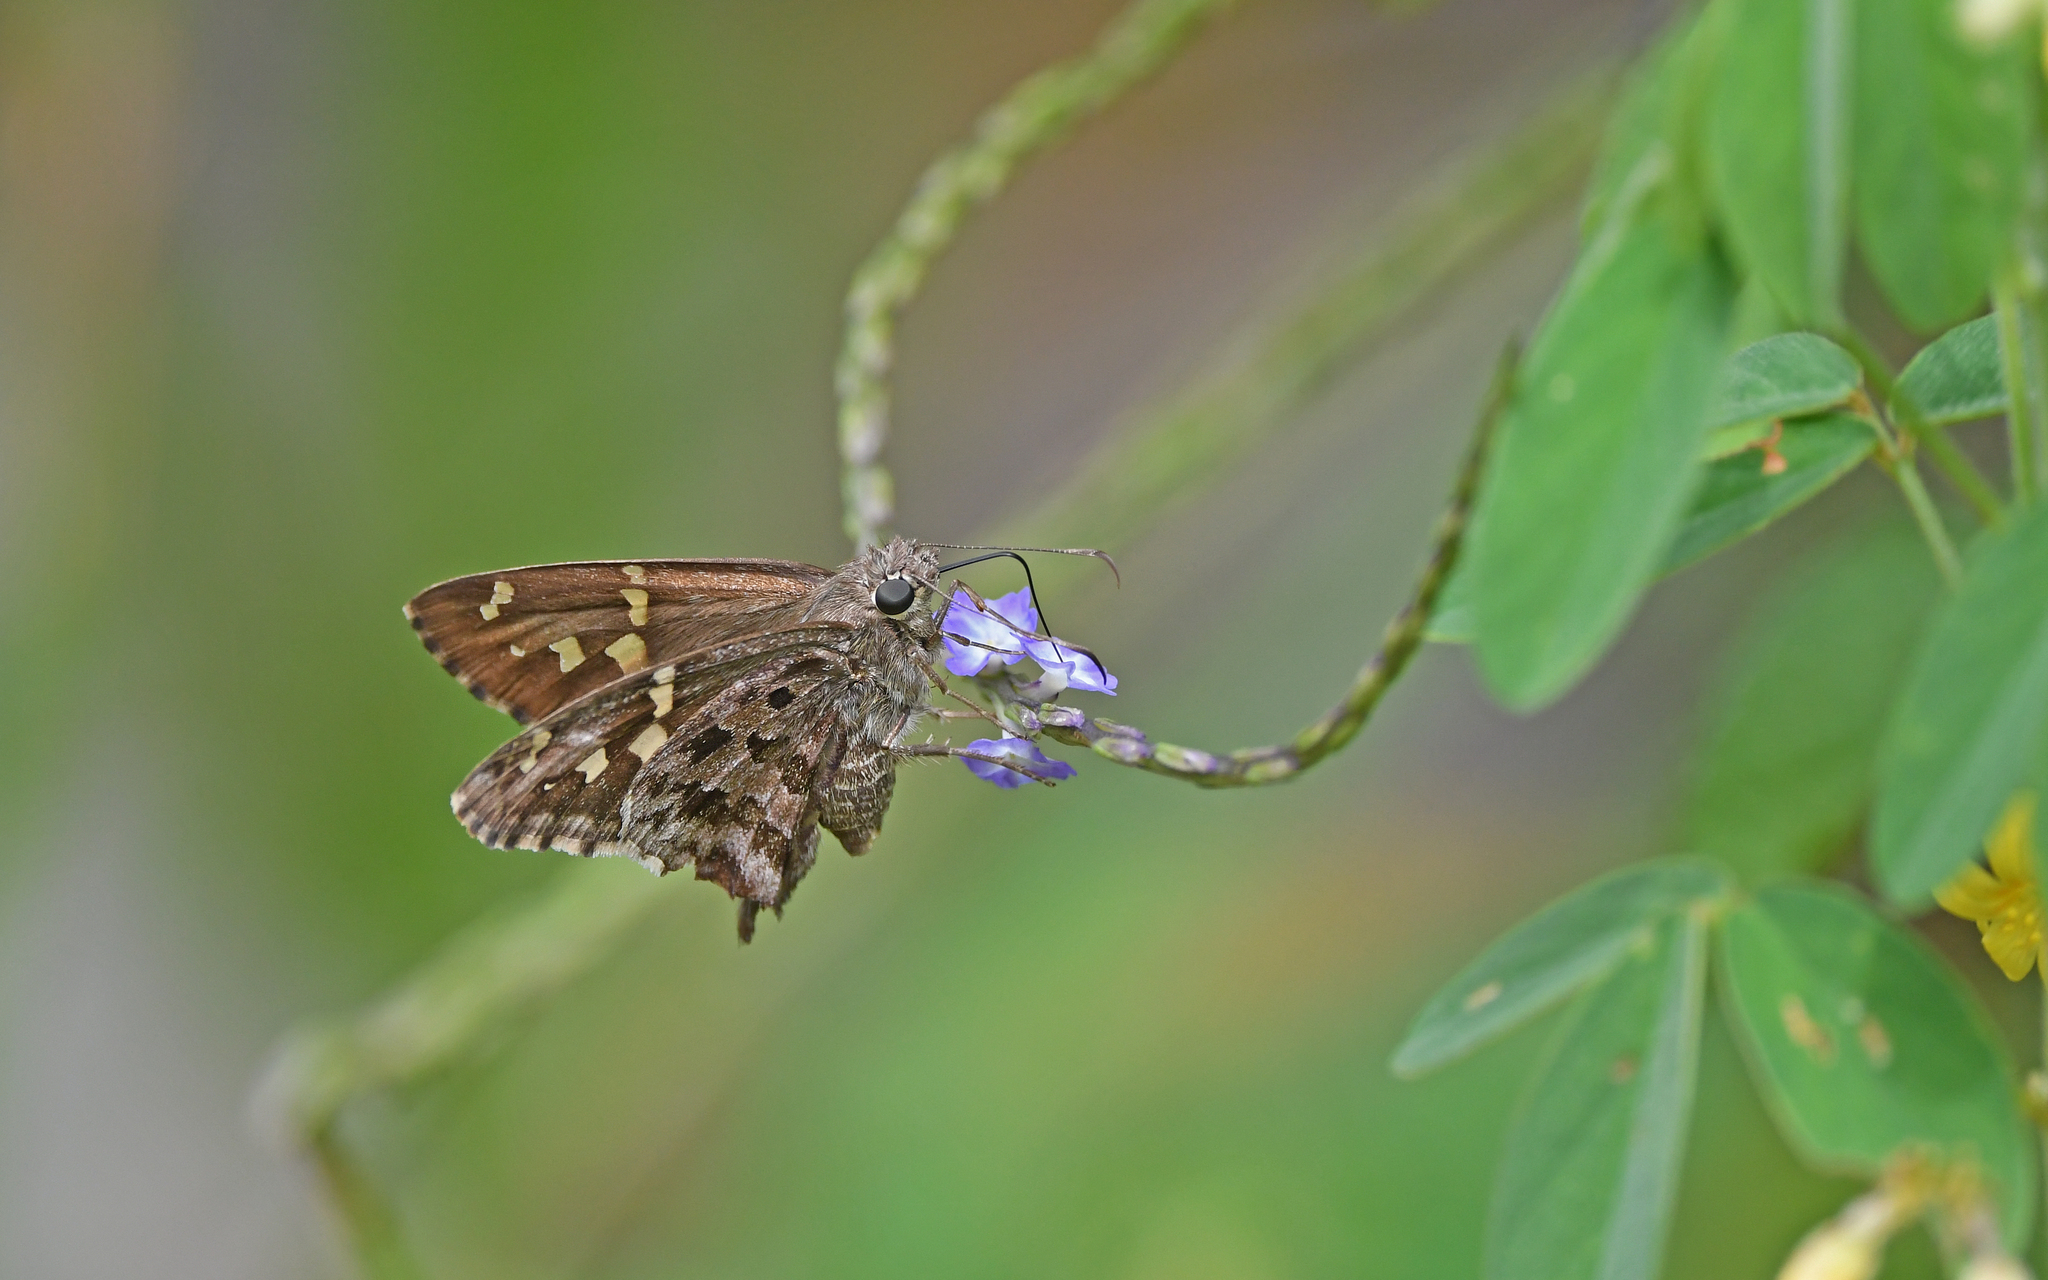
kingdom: Animalia
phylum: Arthropoda
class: Insecta
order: Lepidoptera
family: Hesperiidae
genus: Thorybes
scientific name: Thorybes
